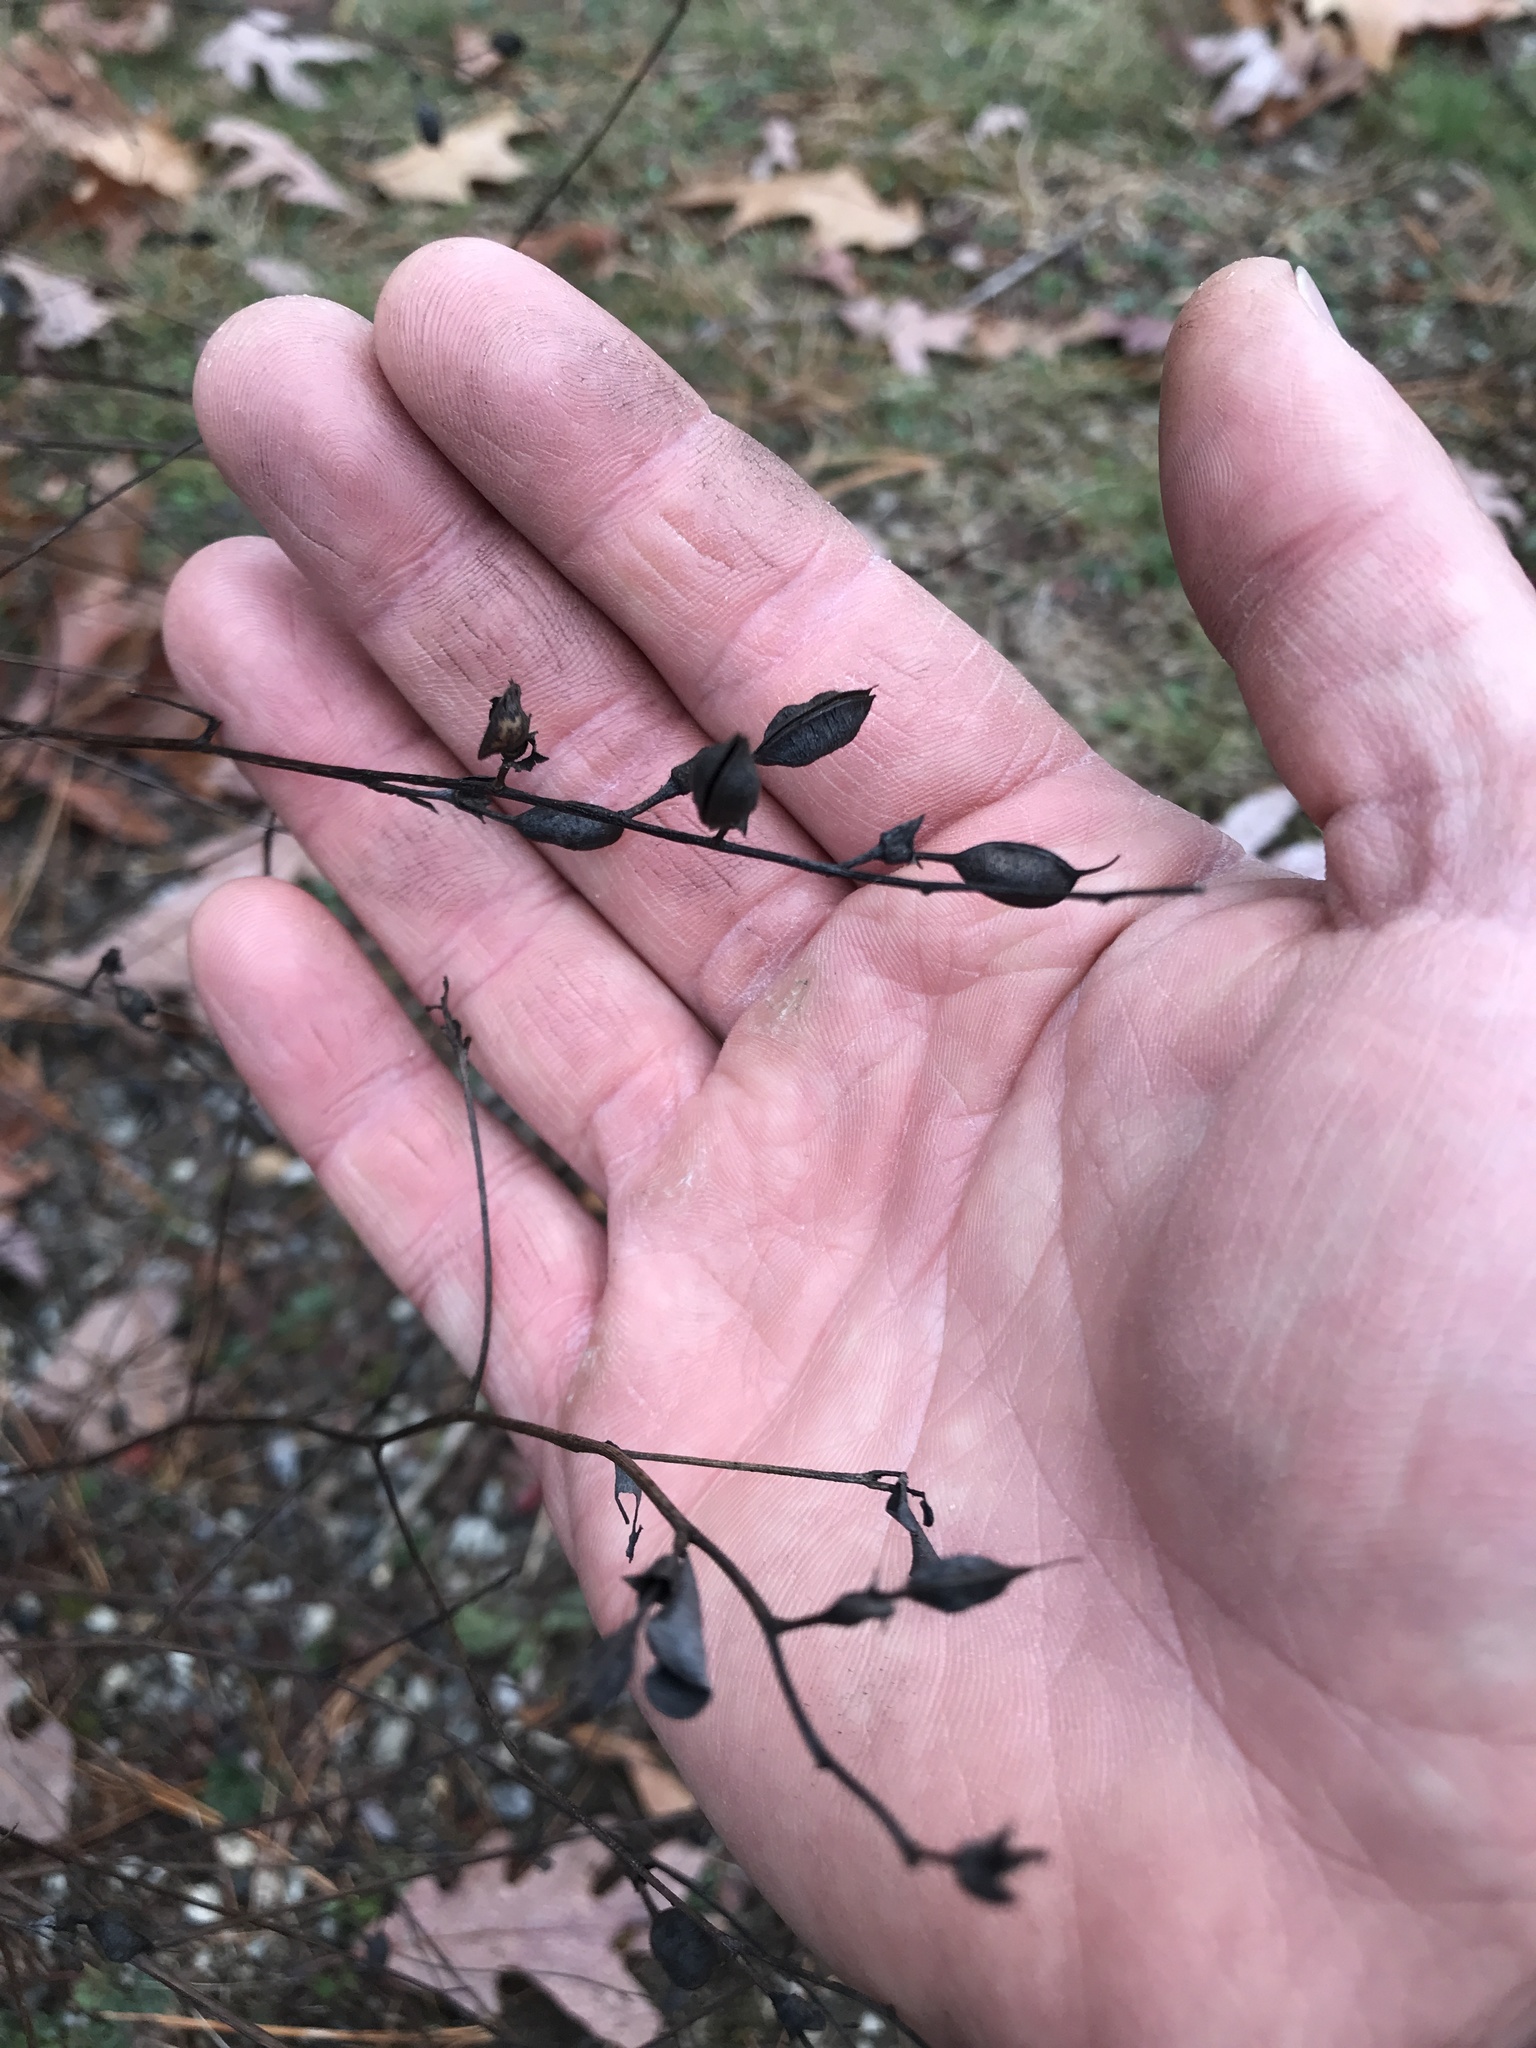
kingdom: Plantae
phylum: Tracheophyta
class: Magnoliopsida
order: Fabales
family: Fabaceae
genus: Baptisia
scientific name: Baptisia tinctoria
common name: Wild indigo
